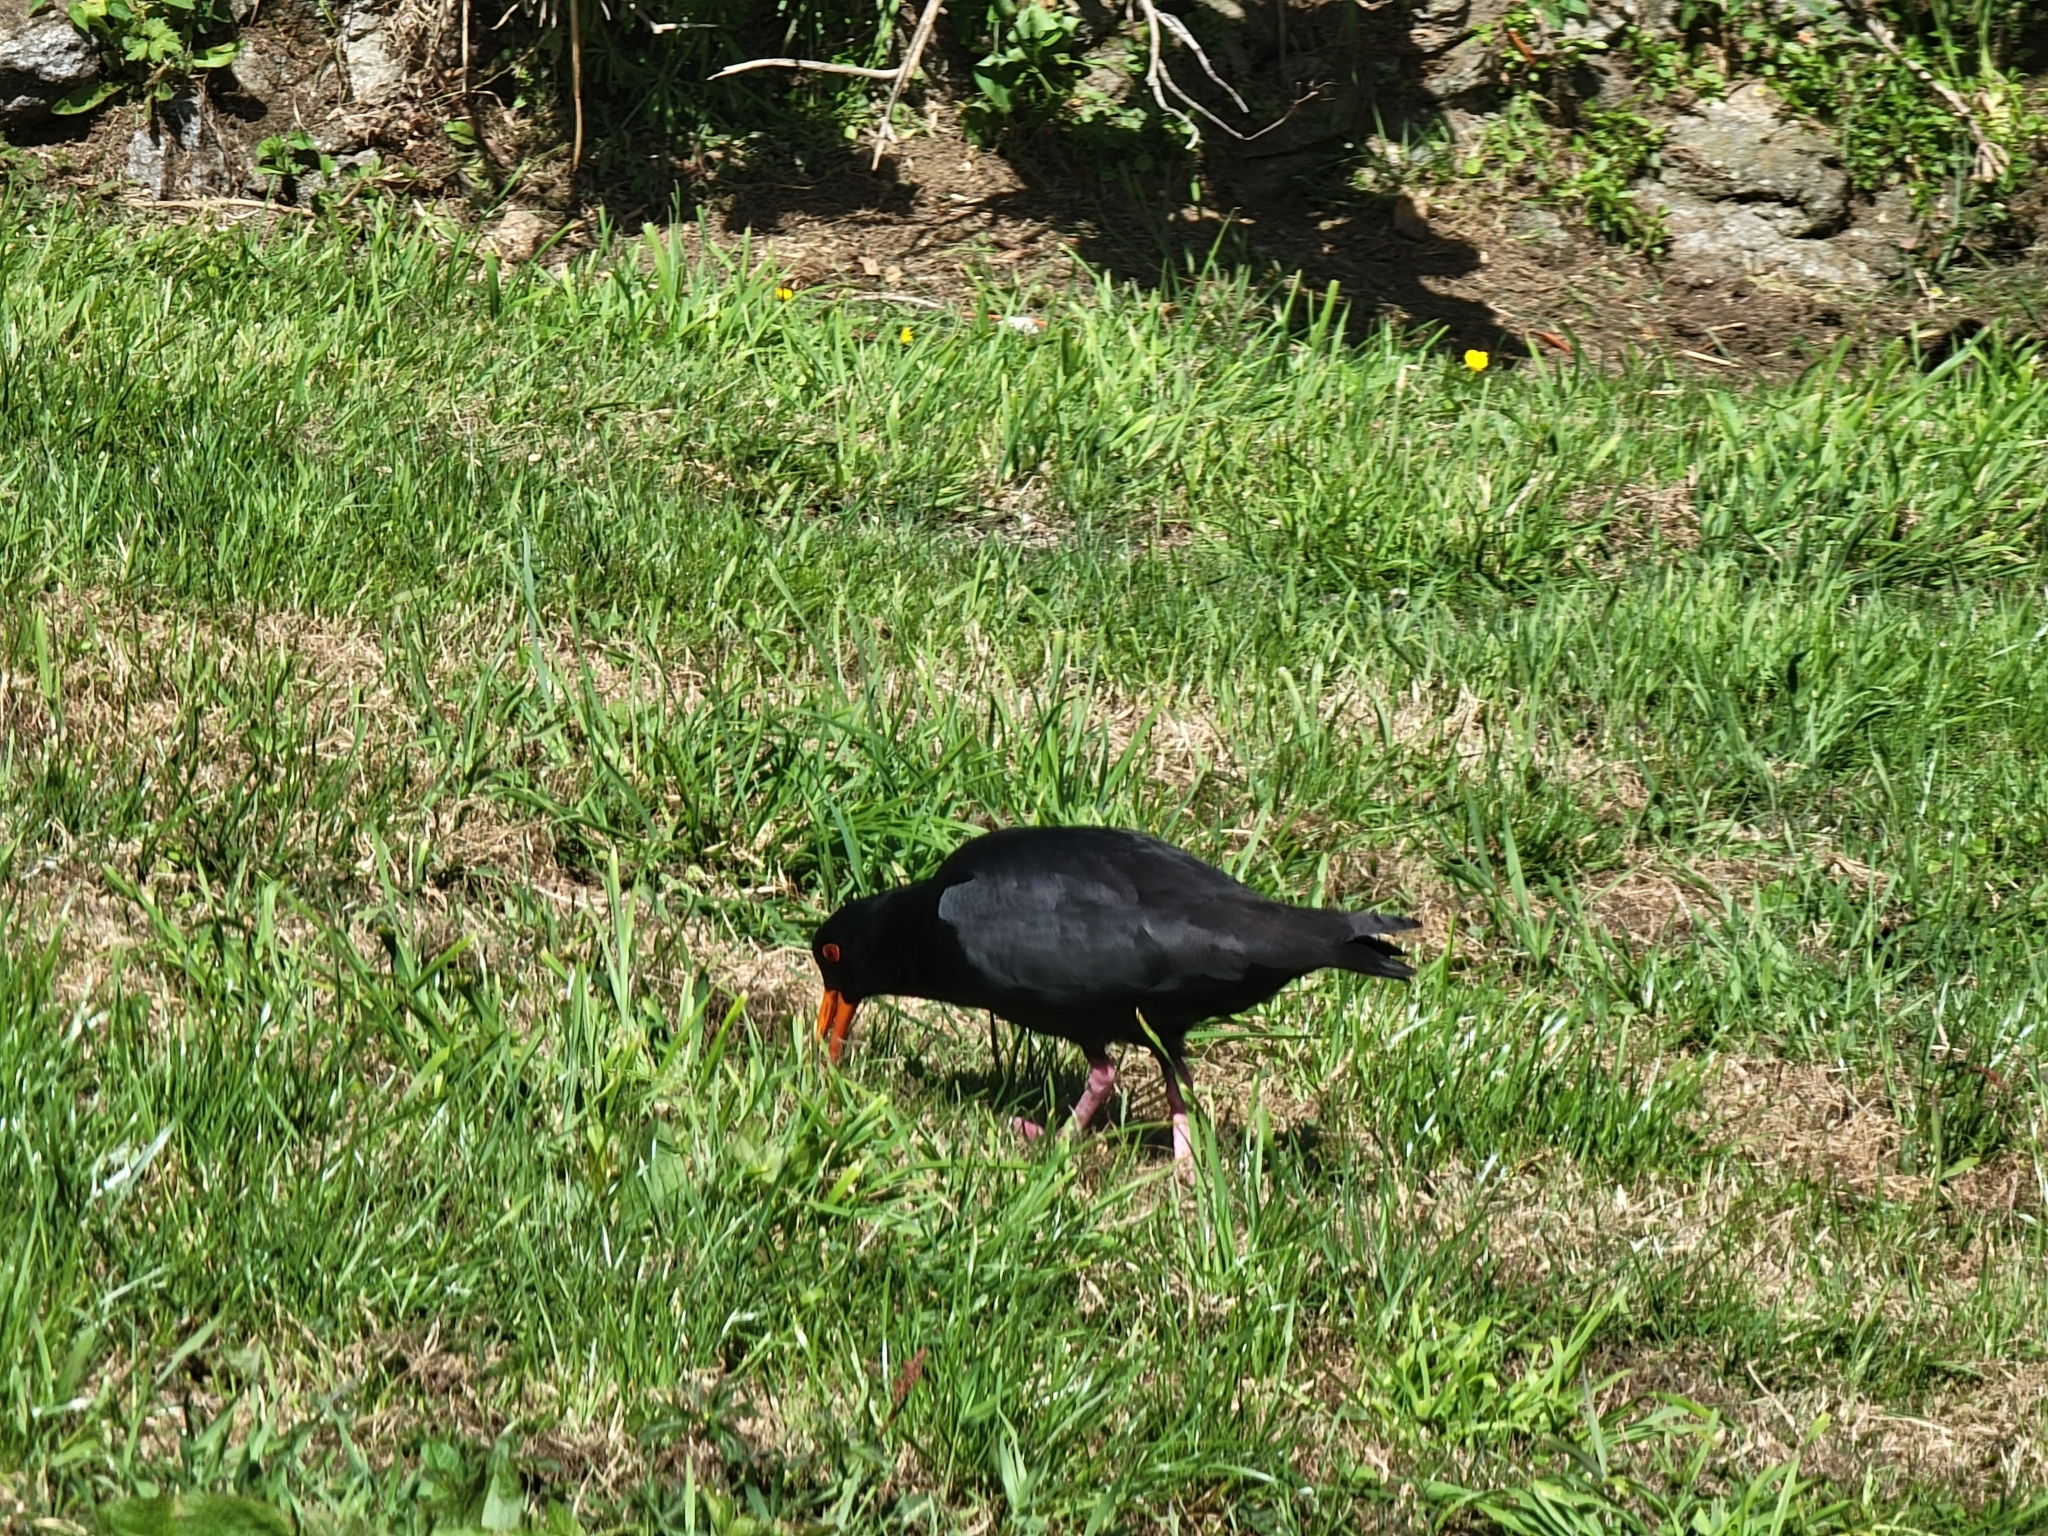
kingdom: Animalia
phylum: Chordata
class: Aves
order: Charadriiformes
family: Haematopodidae
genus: Haematopus
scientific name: Haematopus unicolor
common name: Variable oystercatcher
